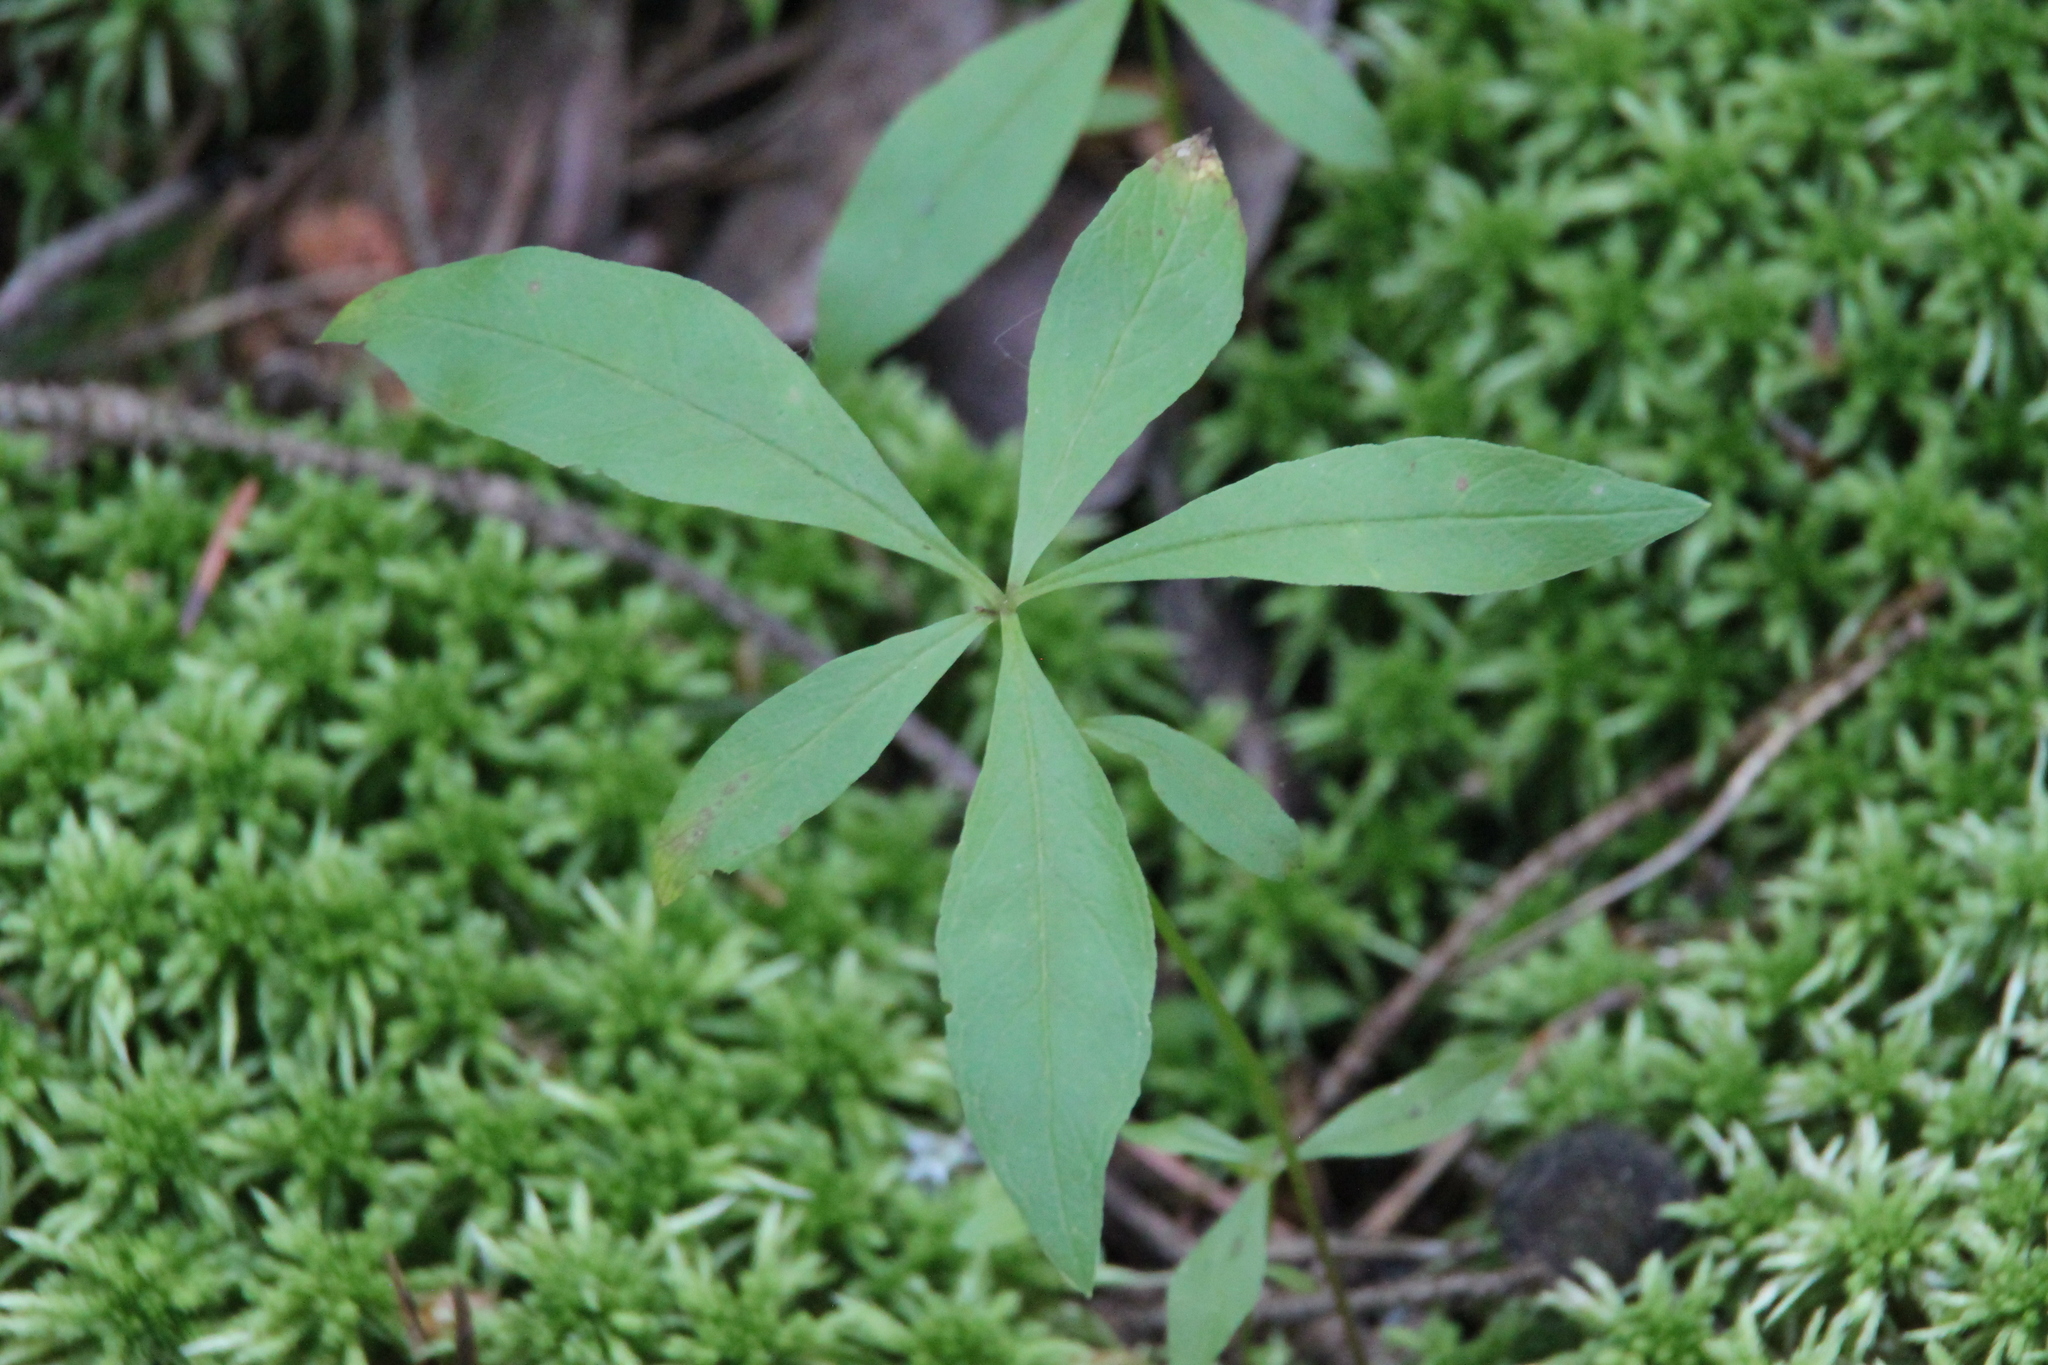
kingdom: Plantae
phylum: Tracheophyta
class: Magnoliopsida
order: Ericales
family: Primulaceae
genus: Lysimachia
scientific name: Lysimachia europaea
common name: Arctic starflower
